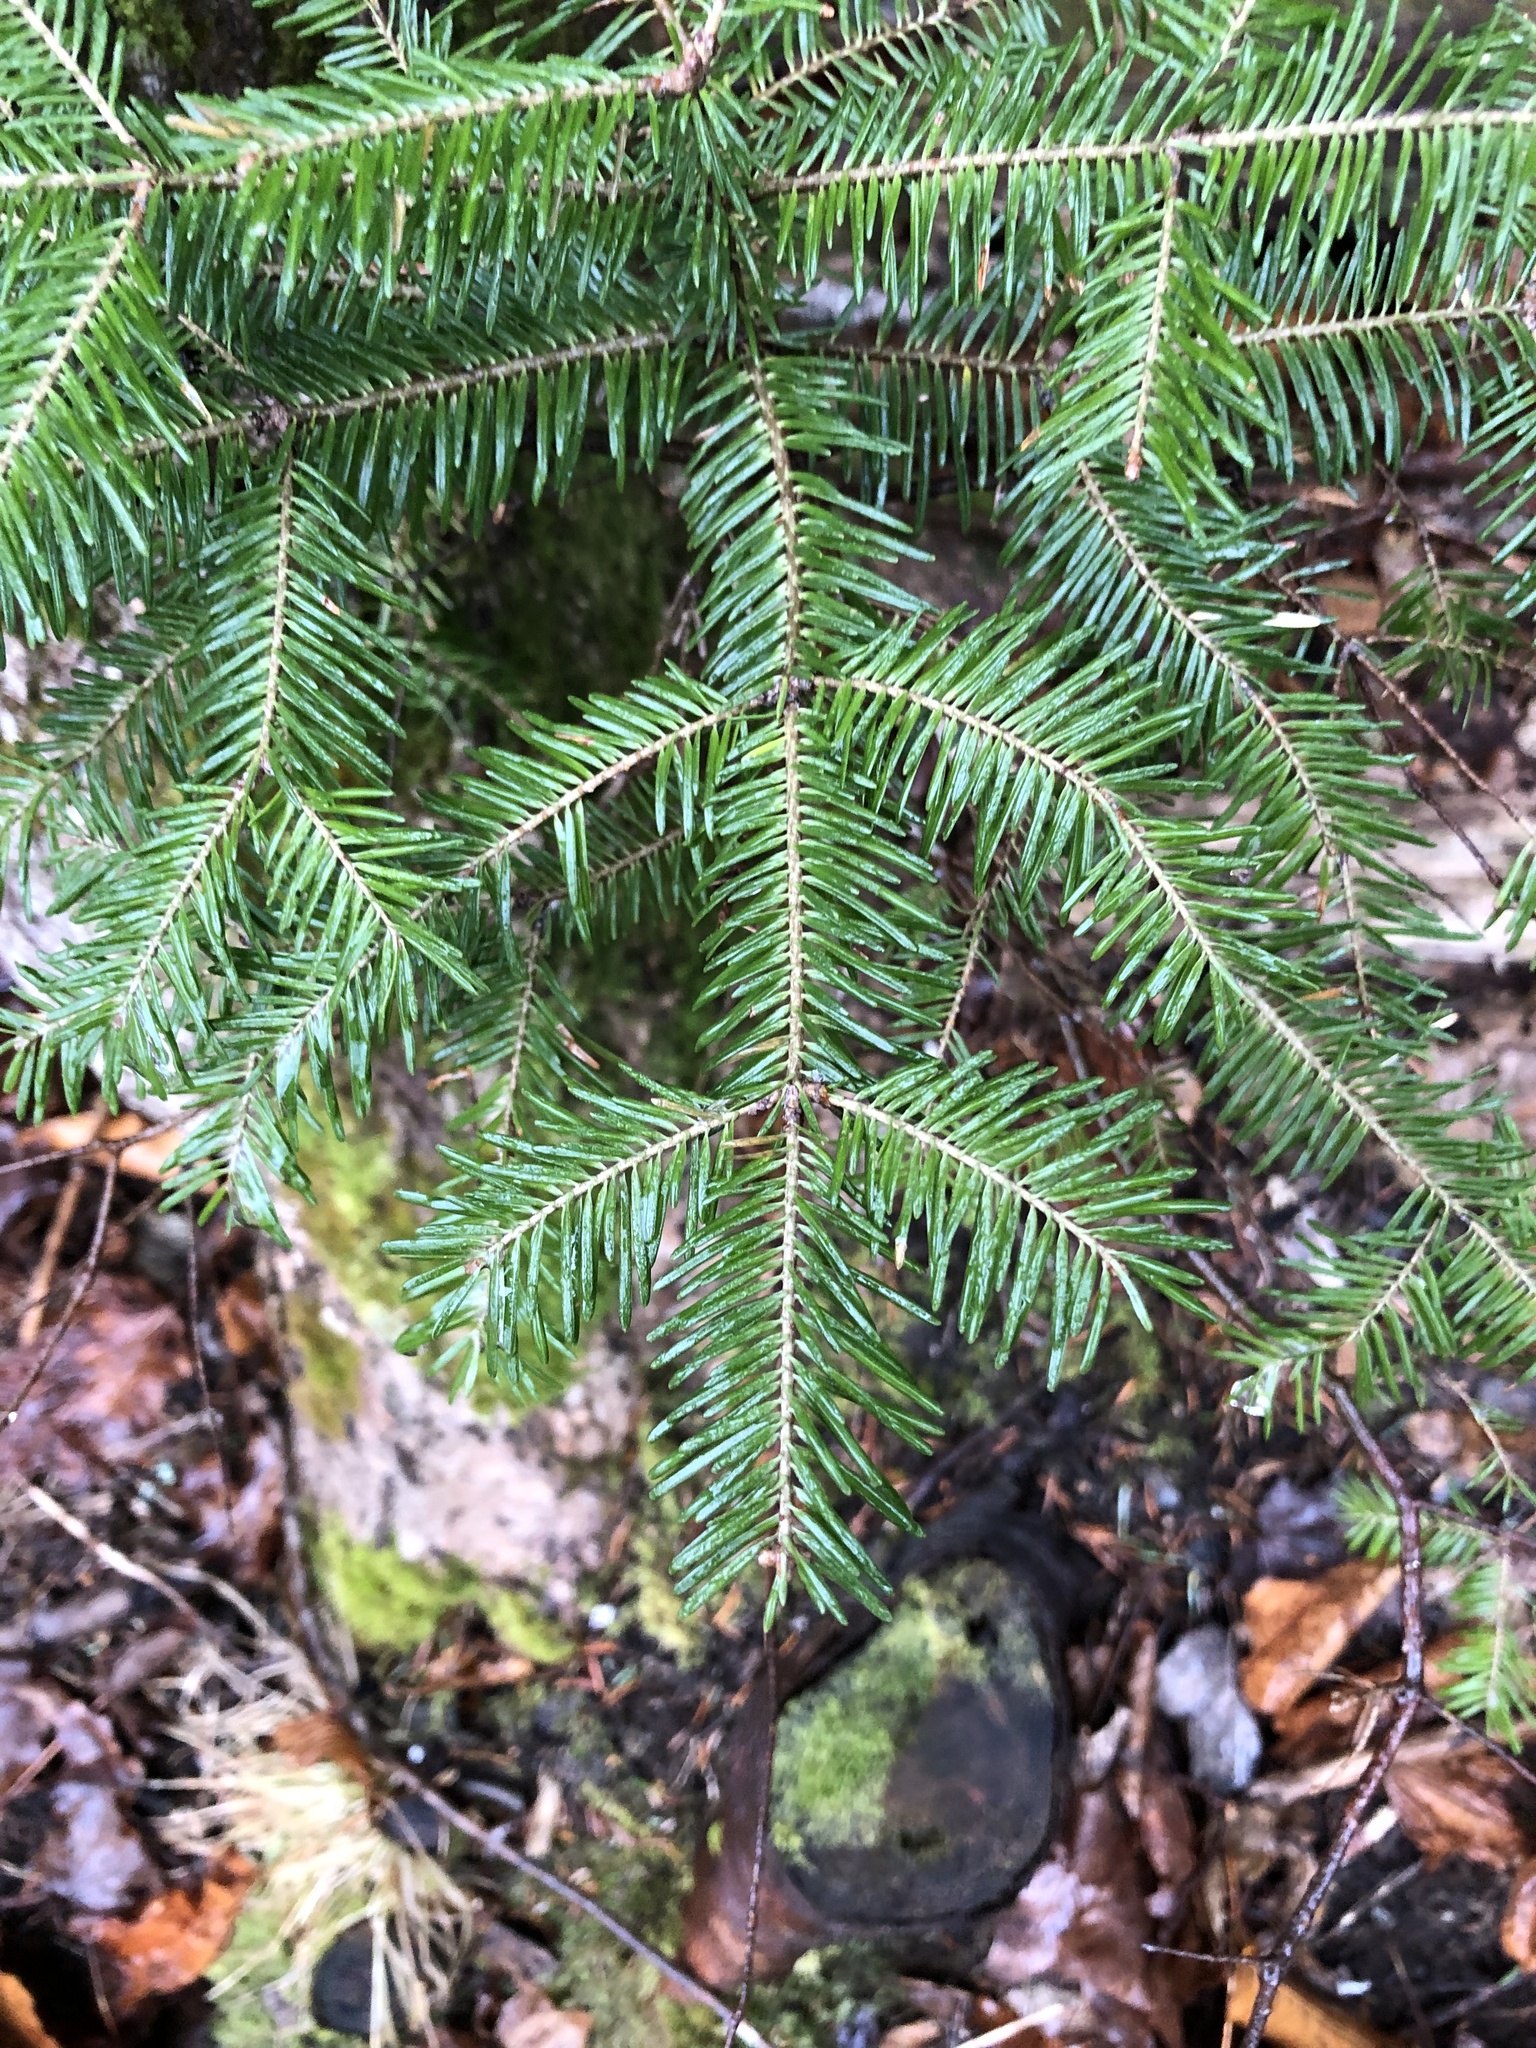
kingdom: Plantae
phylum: Tracheophyta
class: Pinopsida
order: Pinales
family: Pinaceae
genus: Abies
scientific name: Abies balsamea
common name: Balsam fir
